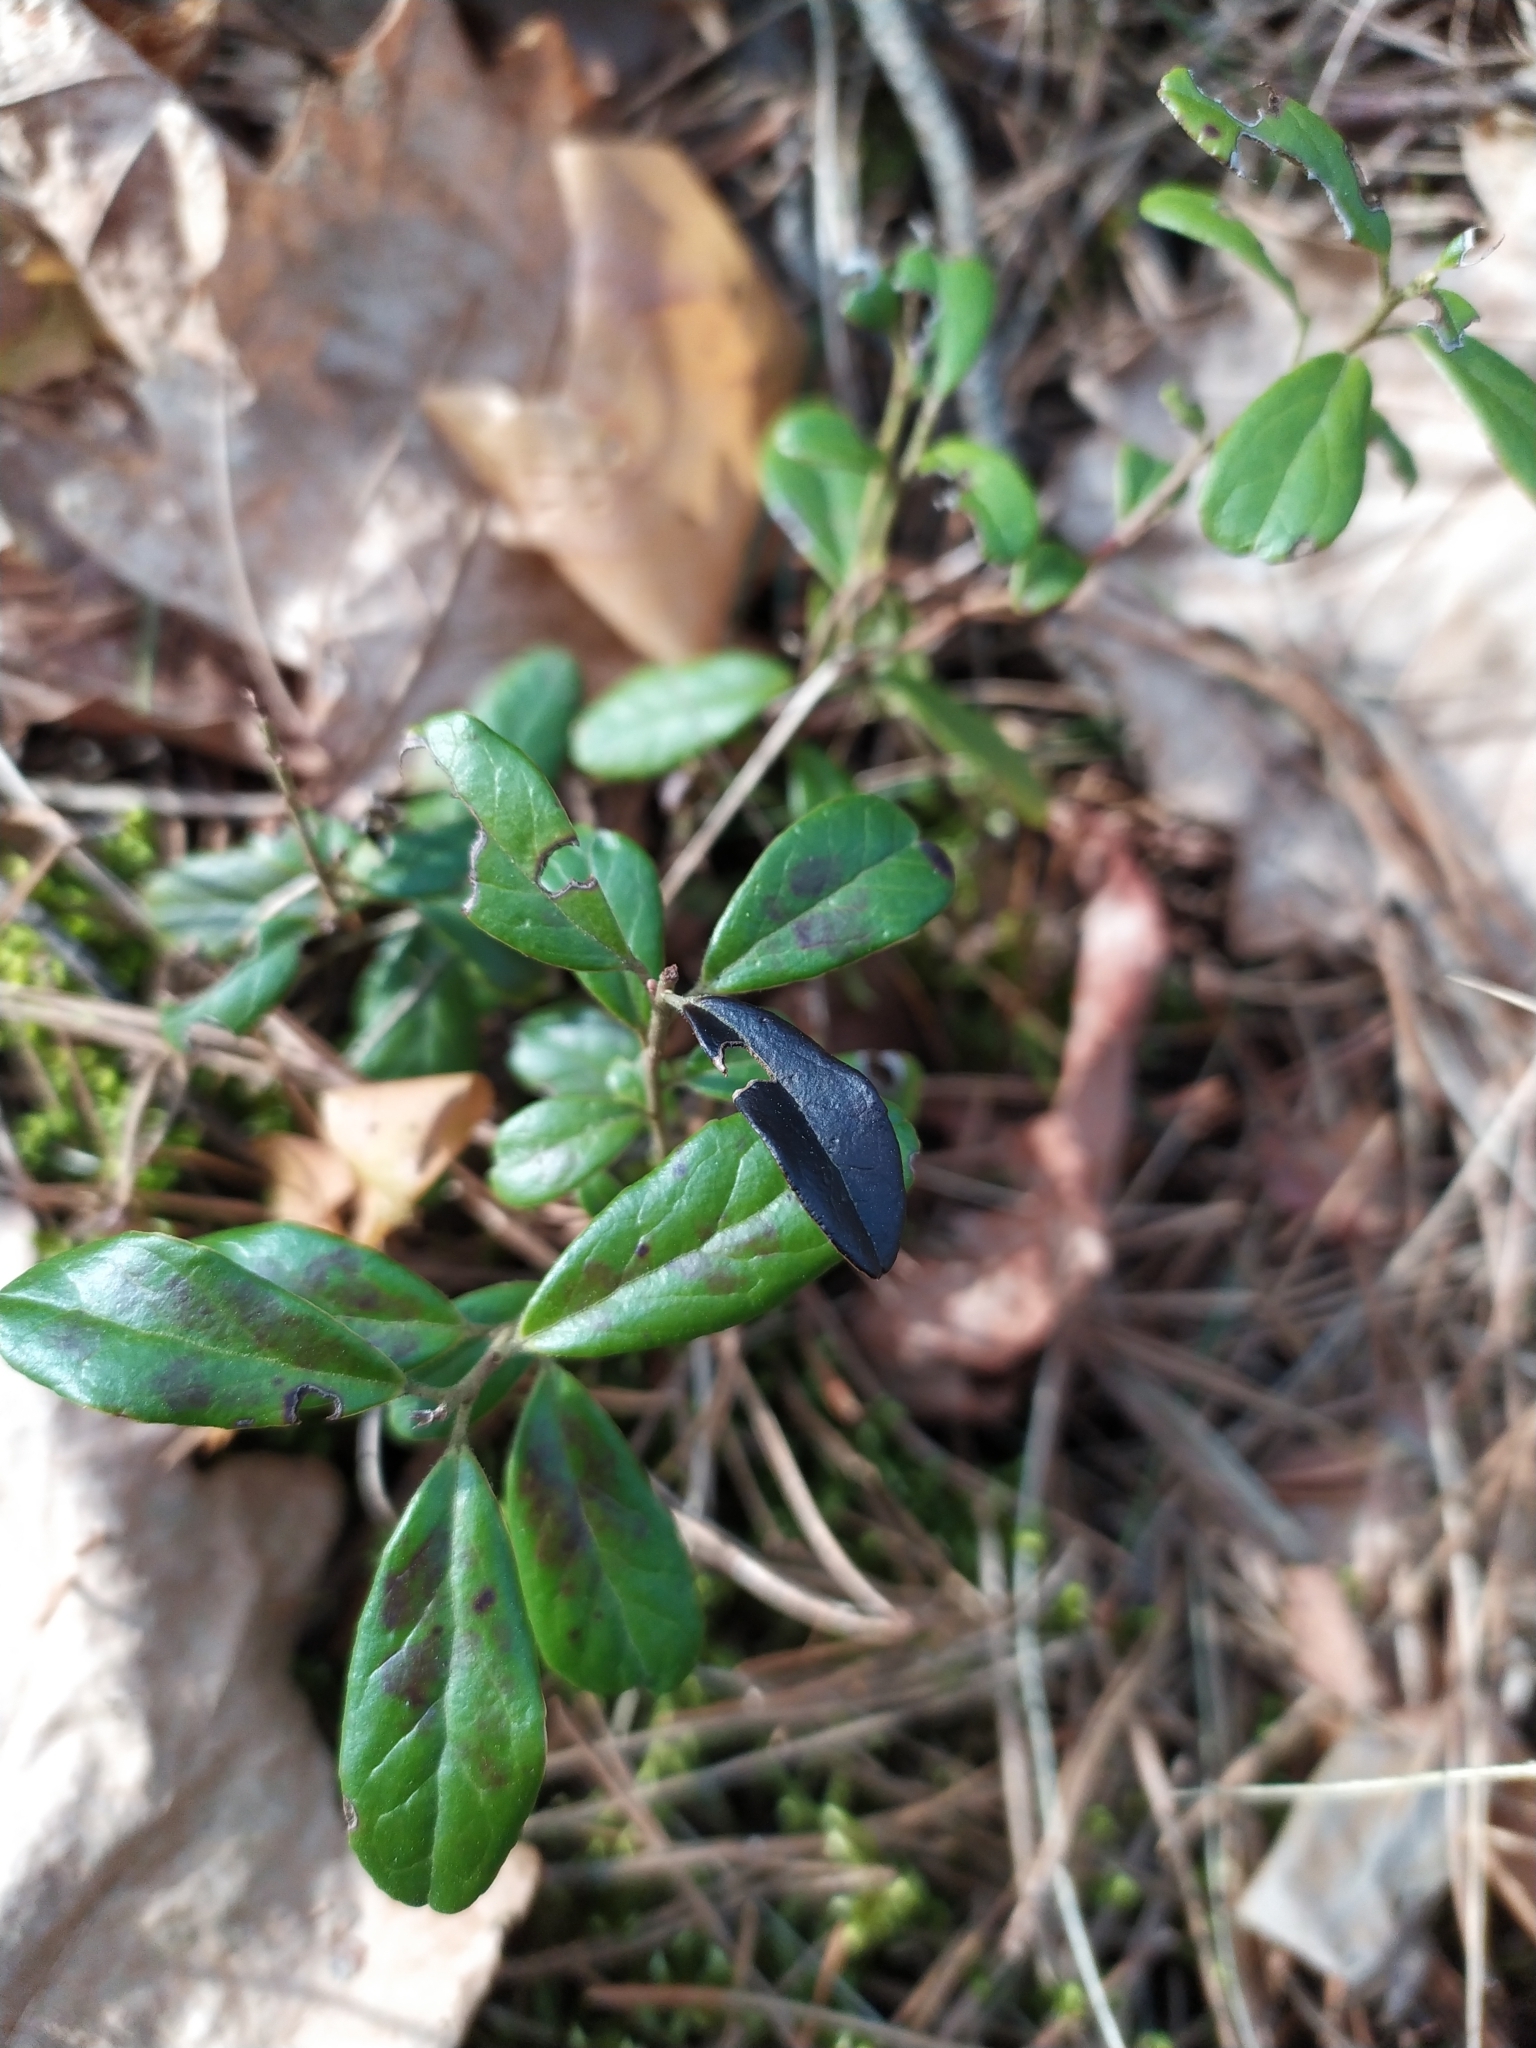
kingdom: Plantae
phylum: Tracheophyta
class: Magnoliopsida
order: Ericales
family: Ericaceae
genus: Vaccinium
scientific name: Vaccinium vitis-idaea
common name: Cowberry
